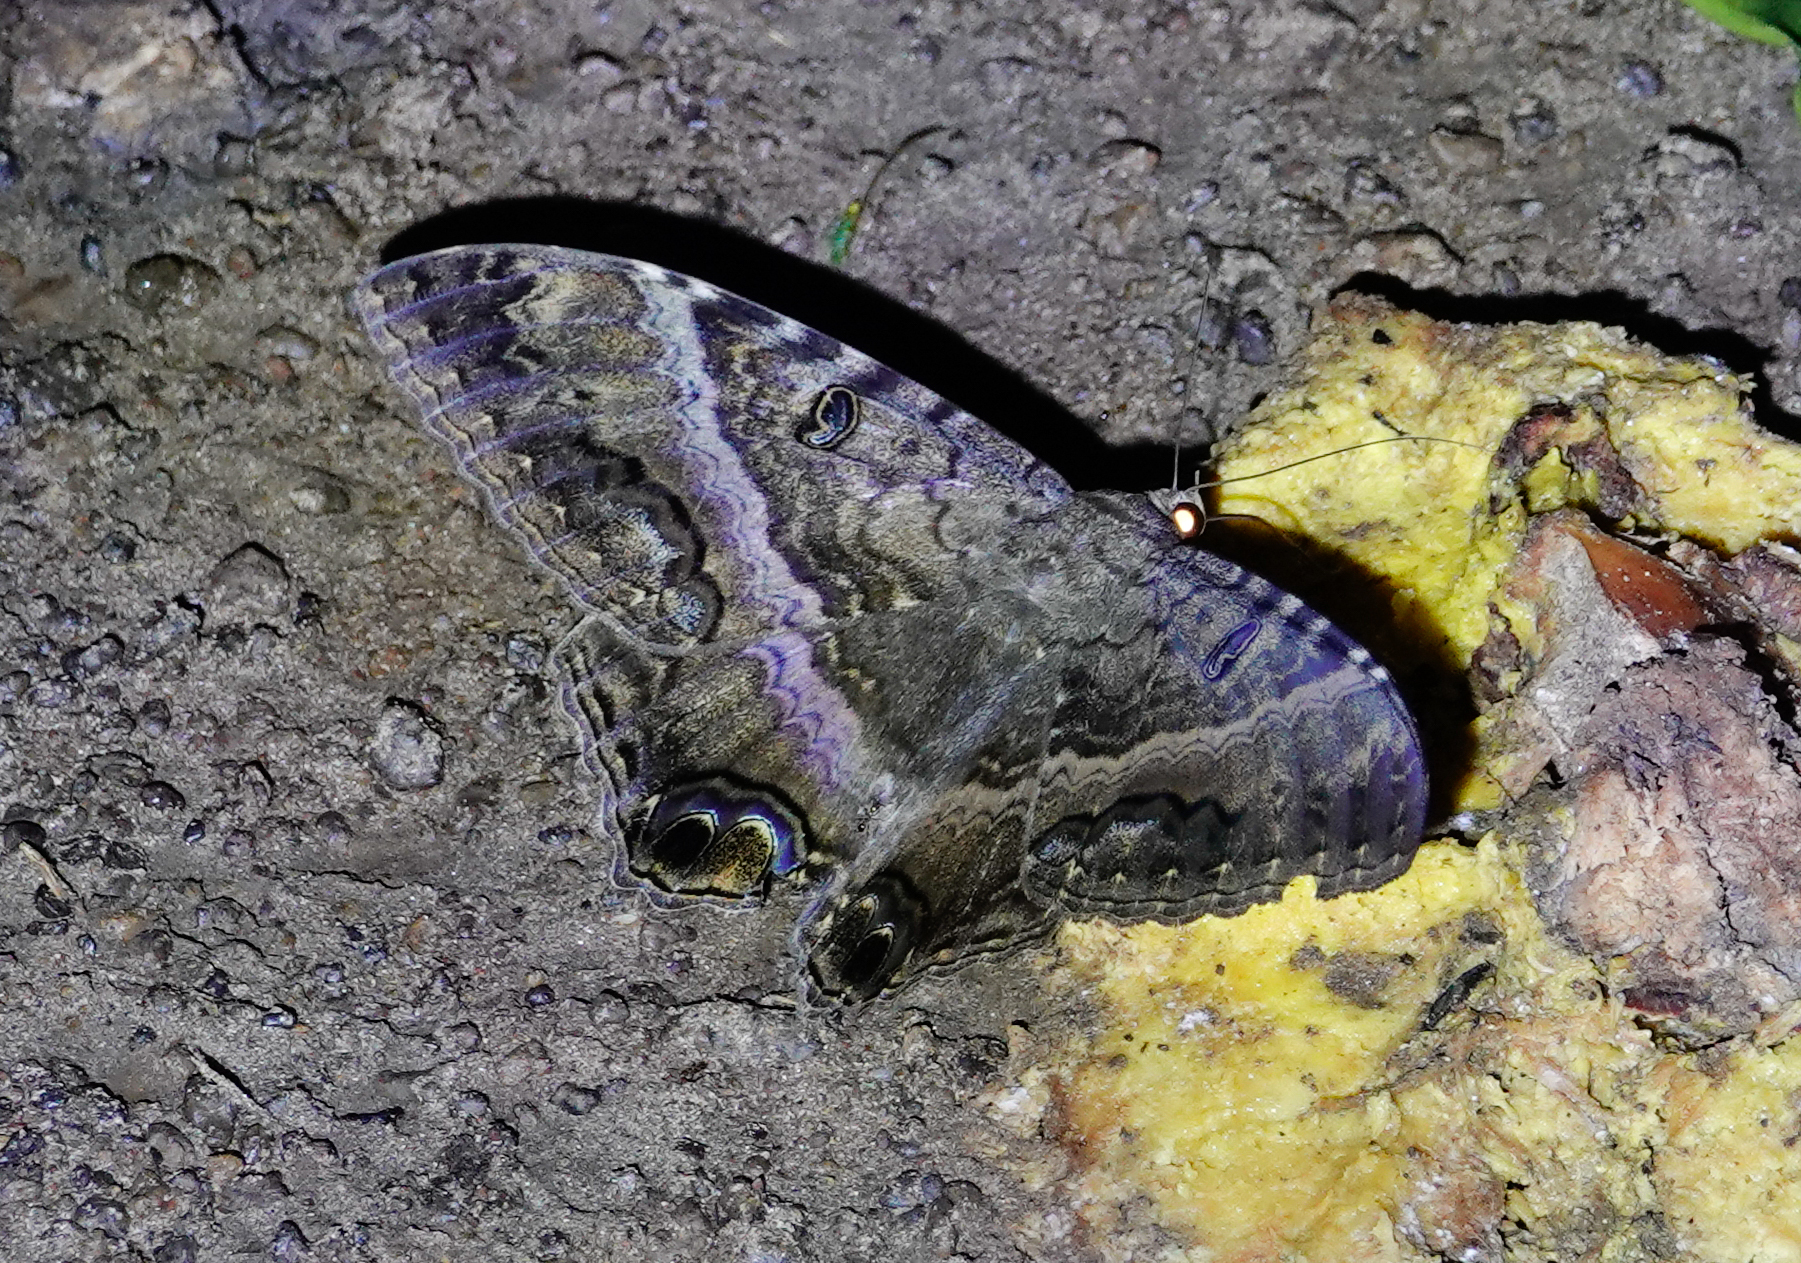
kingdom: Animalia
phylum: Arthropoda
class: Insecta
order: Lepidoptera
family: Erebidae
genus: Ascalapha
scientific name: Ascalapha odorata
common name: Black witch
